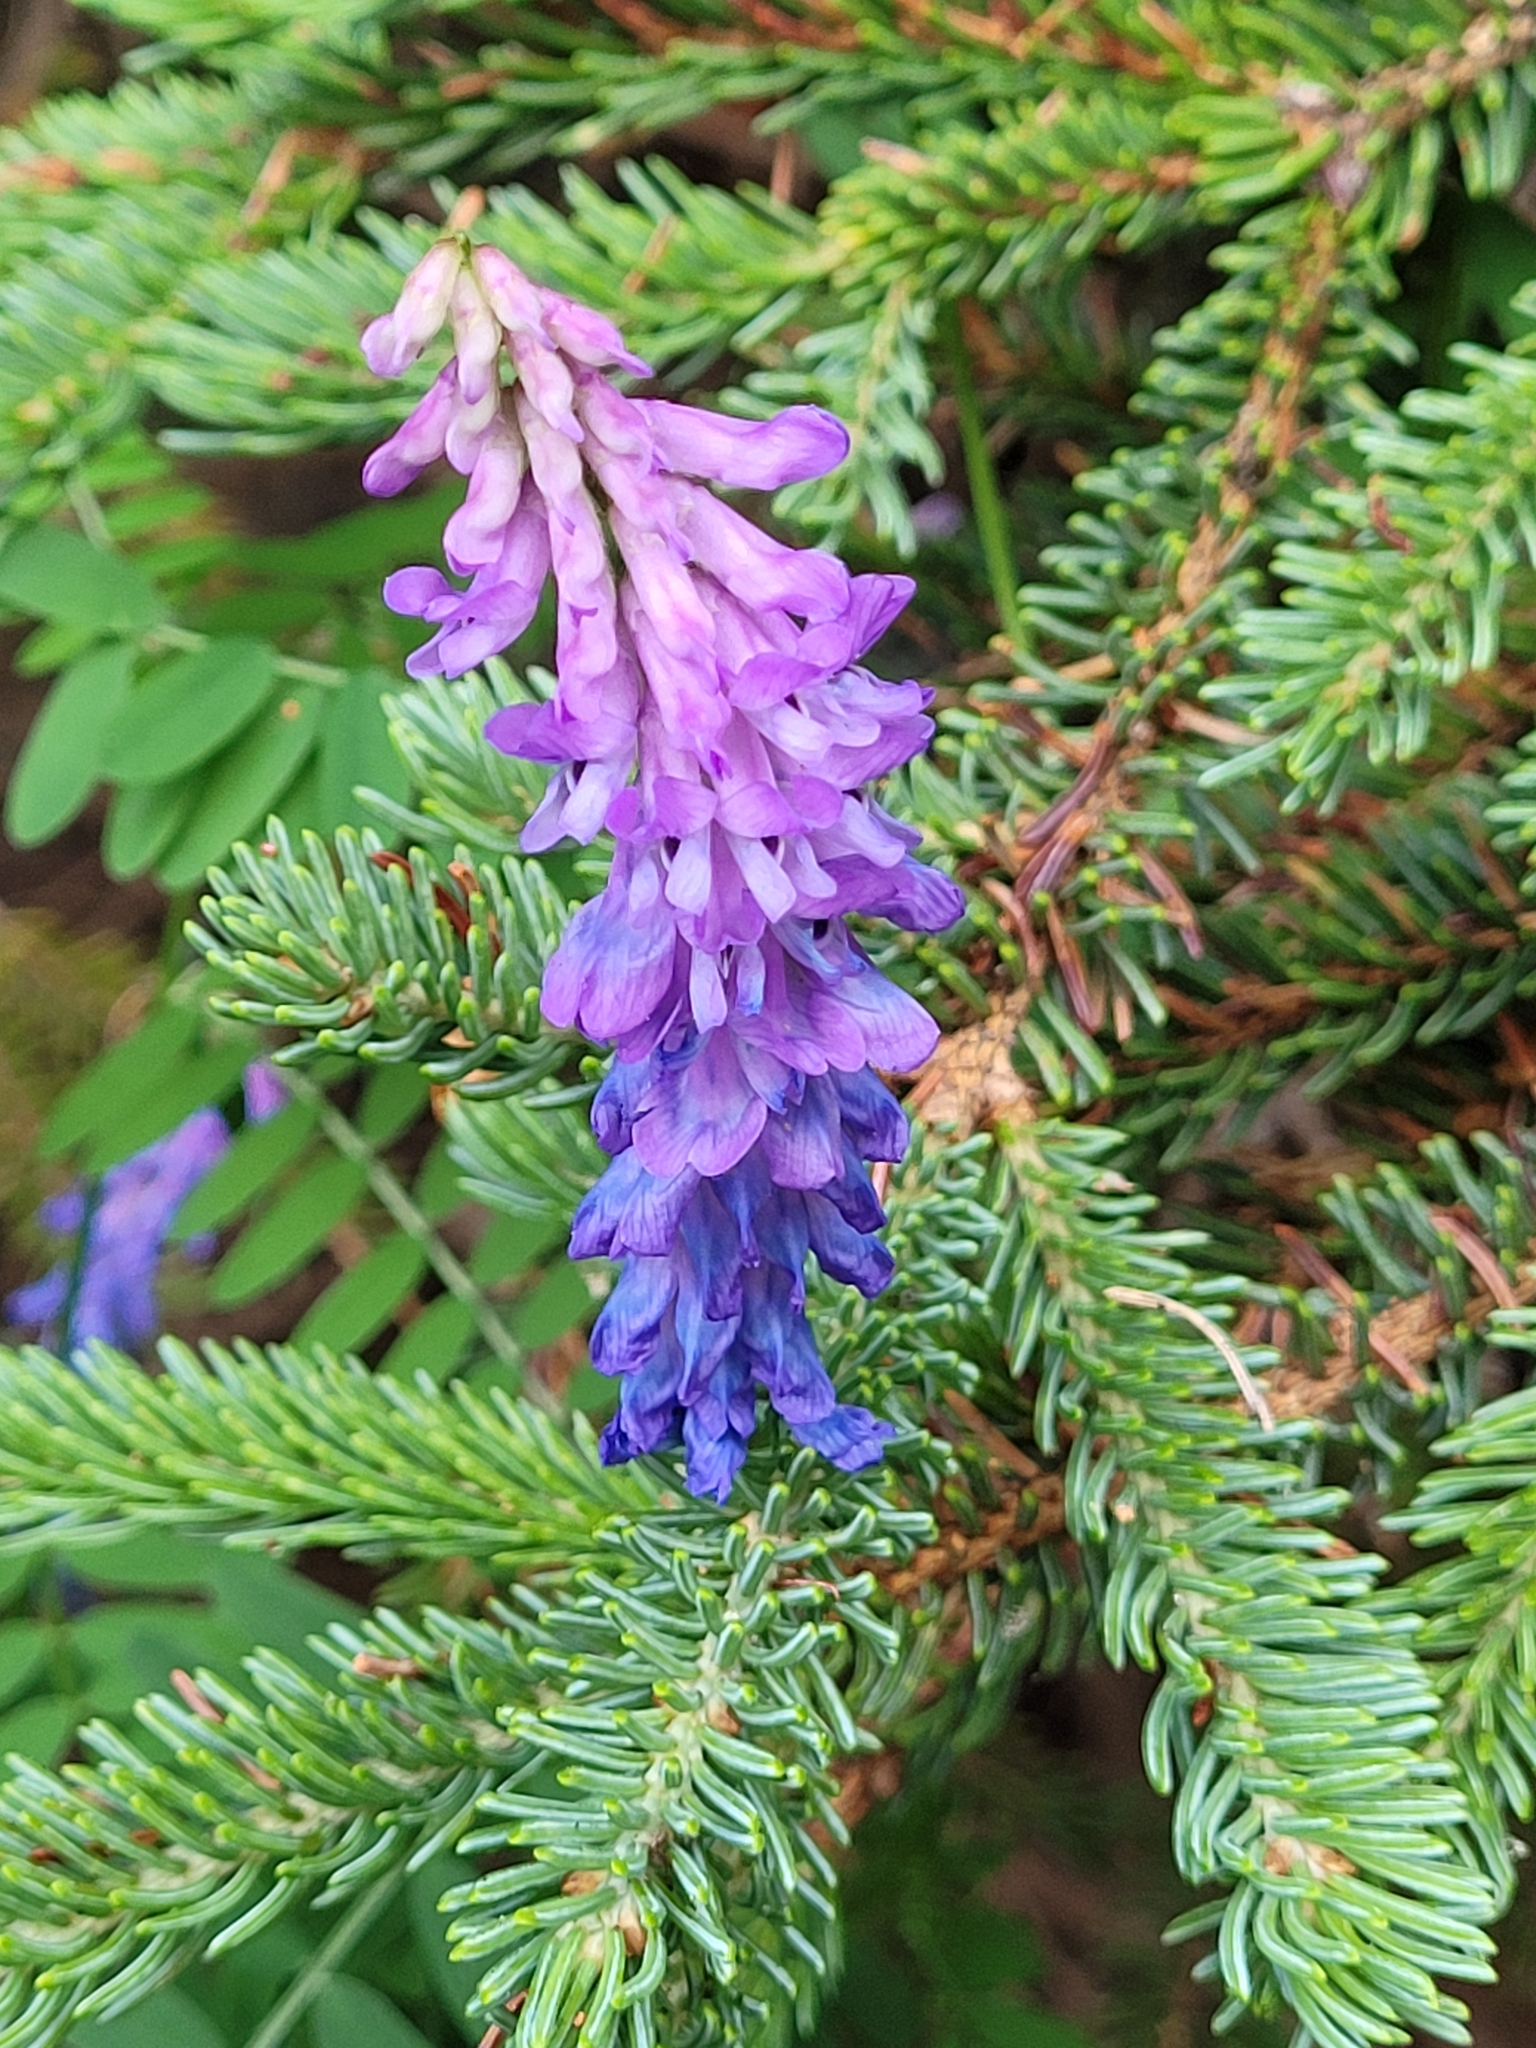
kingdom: Plantae
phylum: Tracheophyta
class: Magnoliopsida
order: Fabales
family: Fabaceae
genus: Vicia
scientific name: Vicia cracca
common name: Bird vetch
